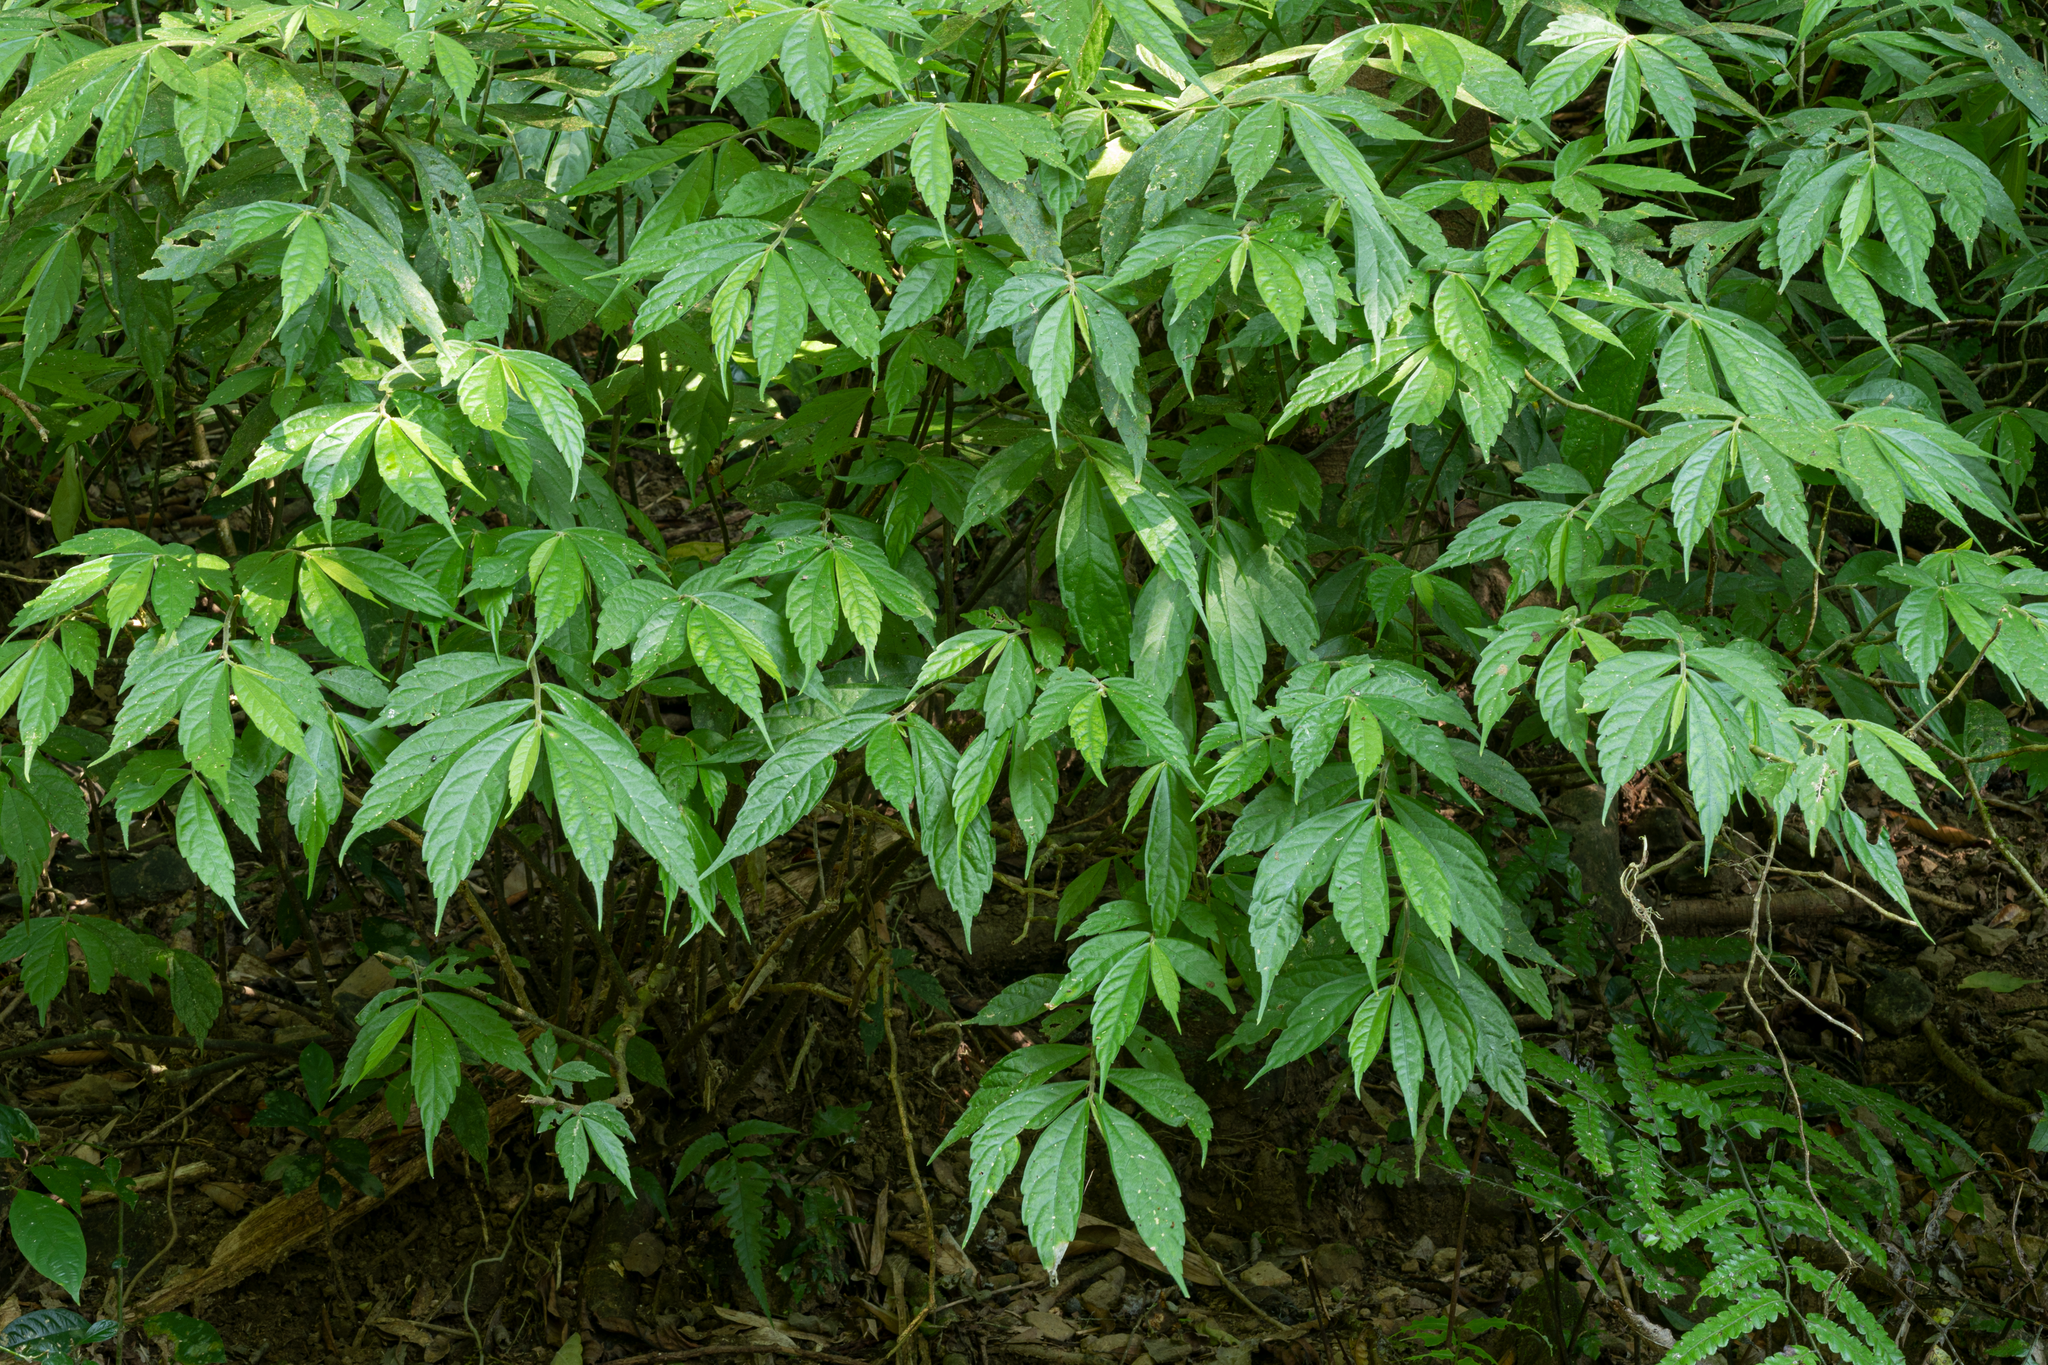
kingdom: Plantae
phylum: Tracheophyta
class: Magnoliopsida
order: Rosales
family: Urticaceae
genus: Elatostema
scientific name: Elatostema lineolatum
